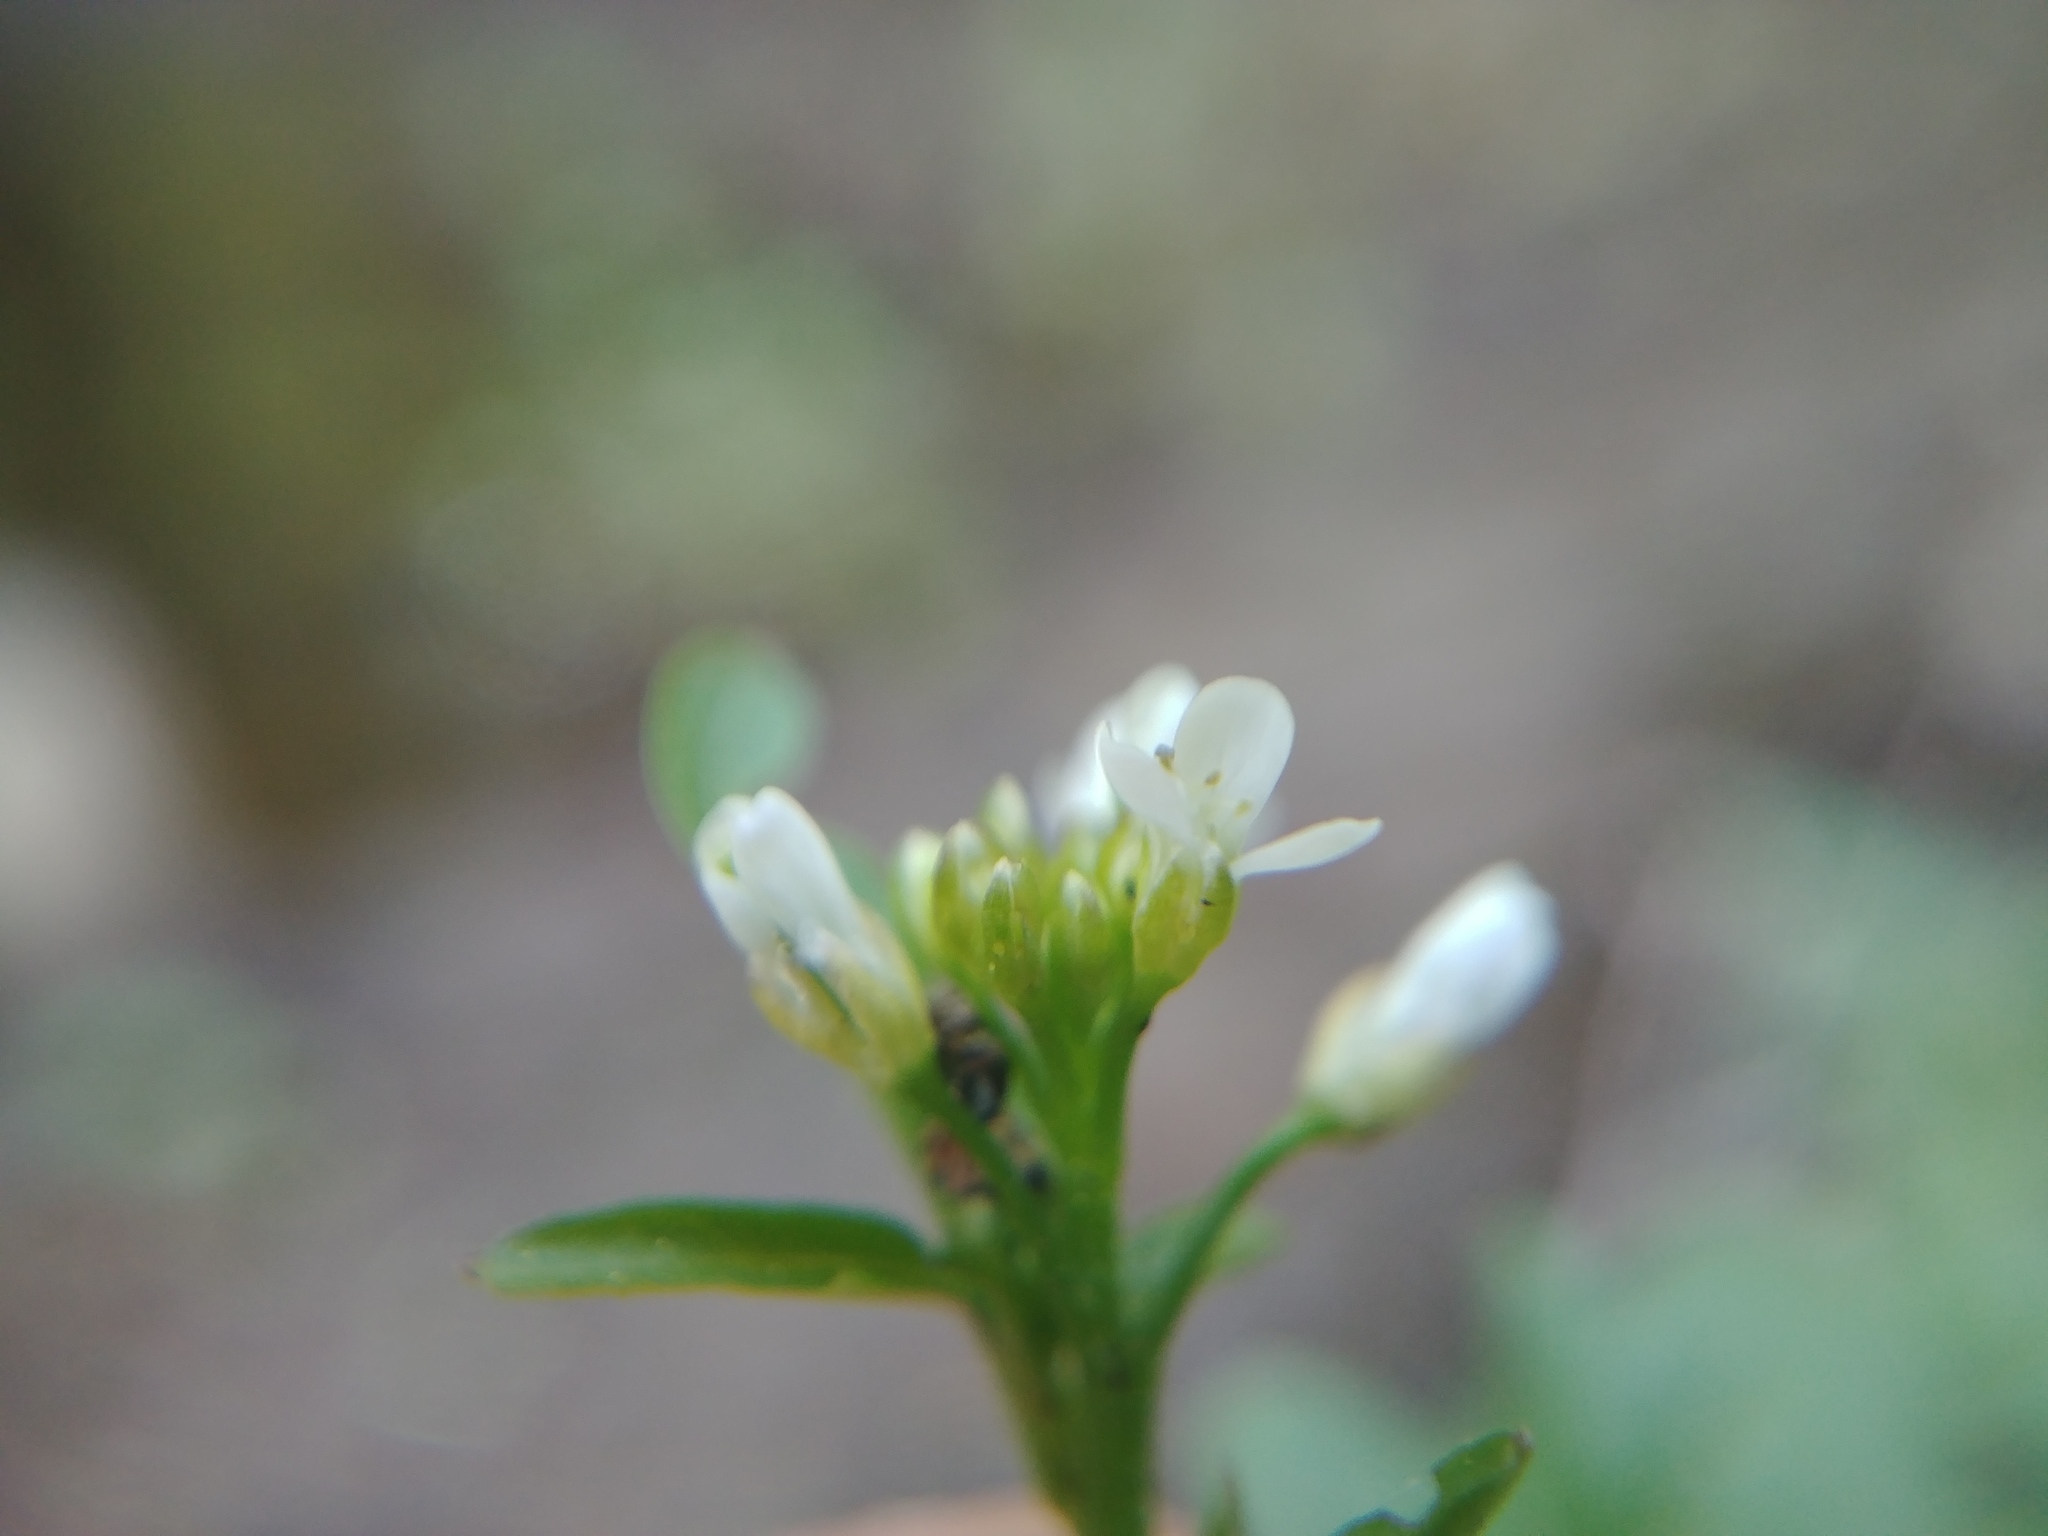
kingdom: Plantae
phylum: Tracheophyta
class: Magnoliopsida
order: Brassicales
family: Brassicaceae
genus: Cardamine
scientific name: Cardamine pensylvanica
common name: Pennsylvania bittercress
